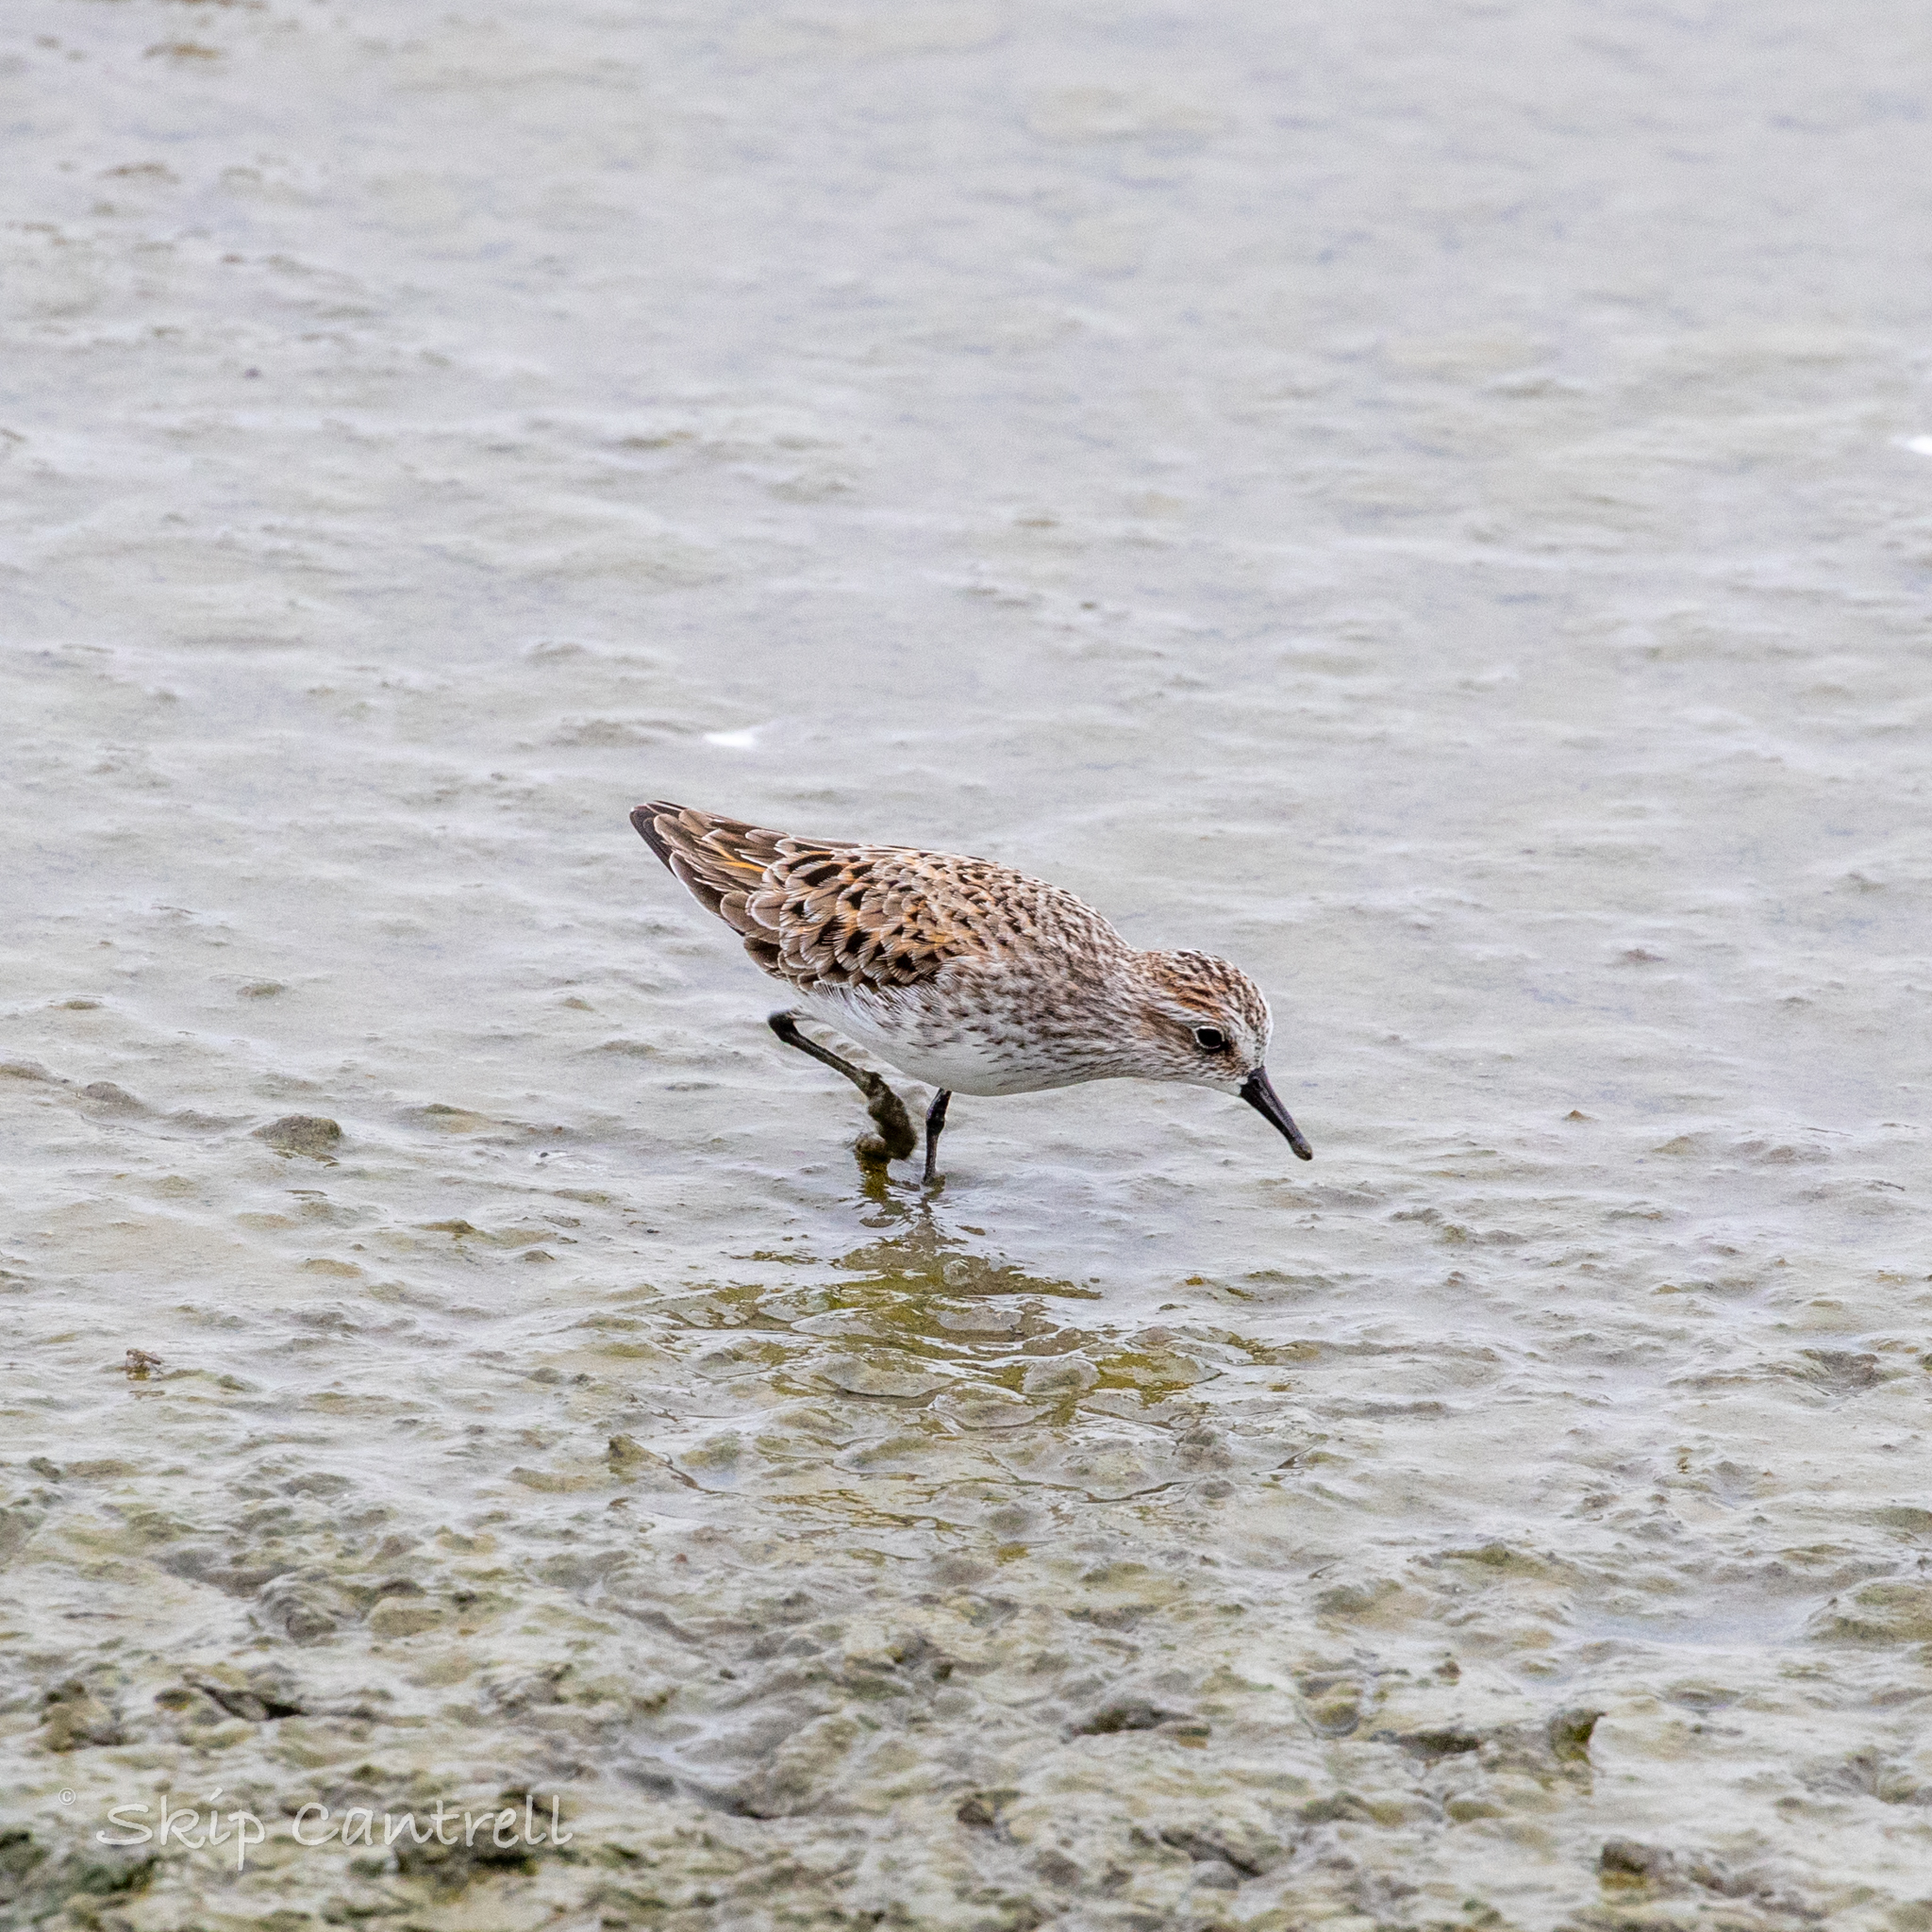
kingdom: Animalia
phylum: Chordata
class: Aves
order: Charadriiformes
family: Scolopacidae
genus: Calidris
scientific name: Calidris pusilla
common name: Semipalmated sandpiper
